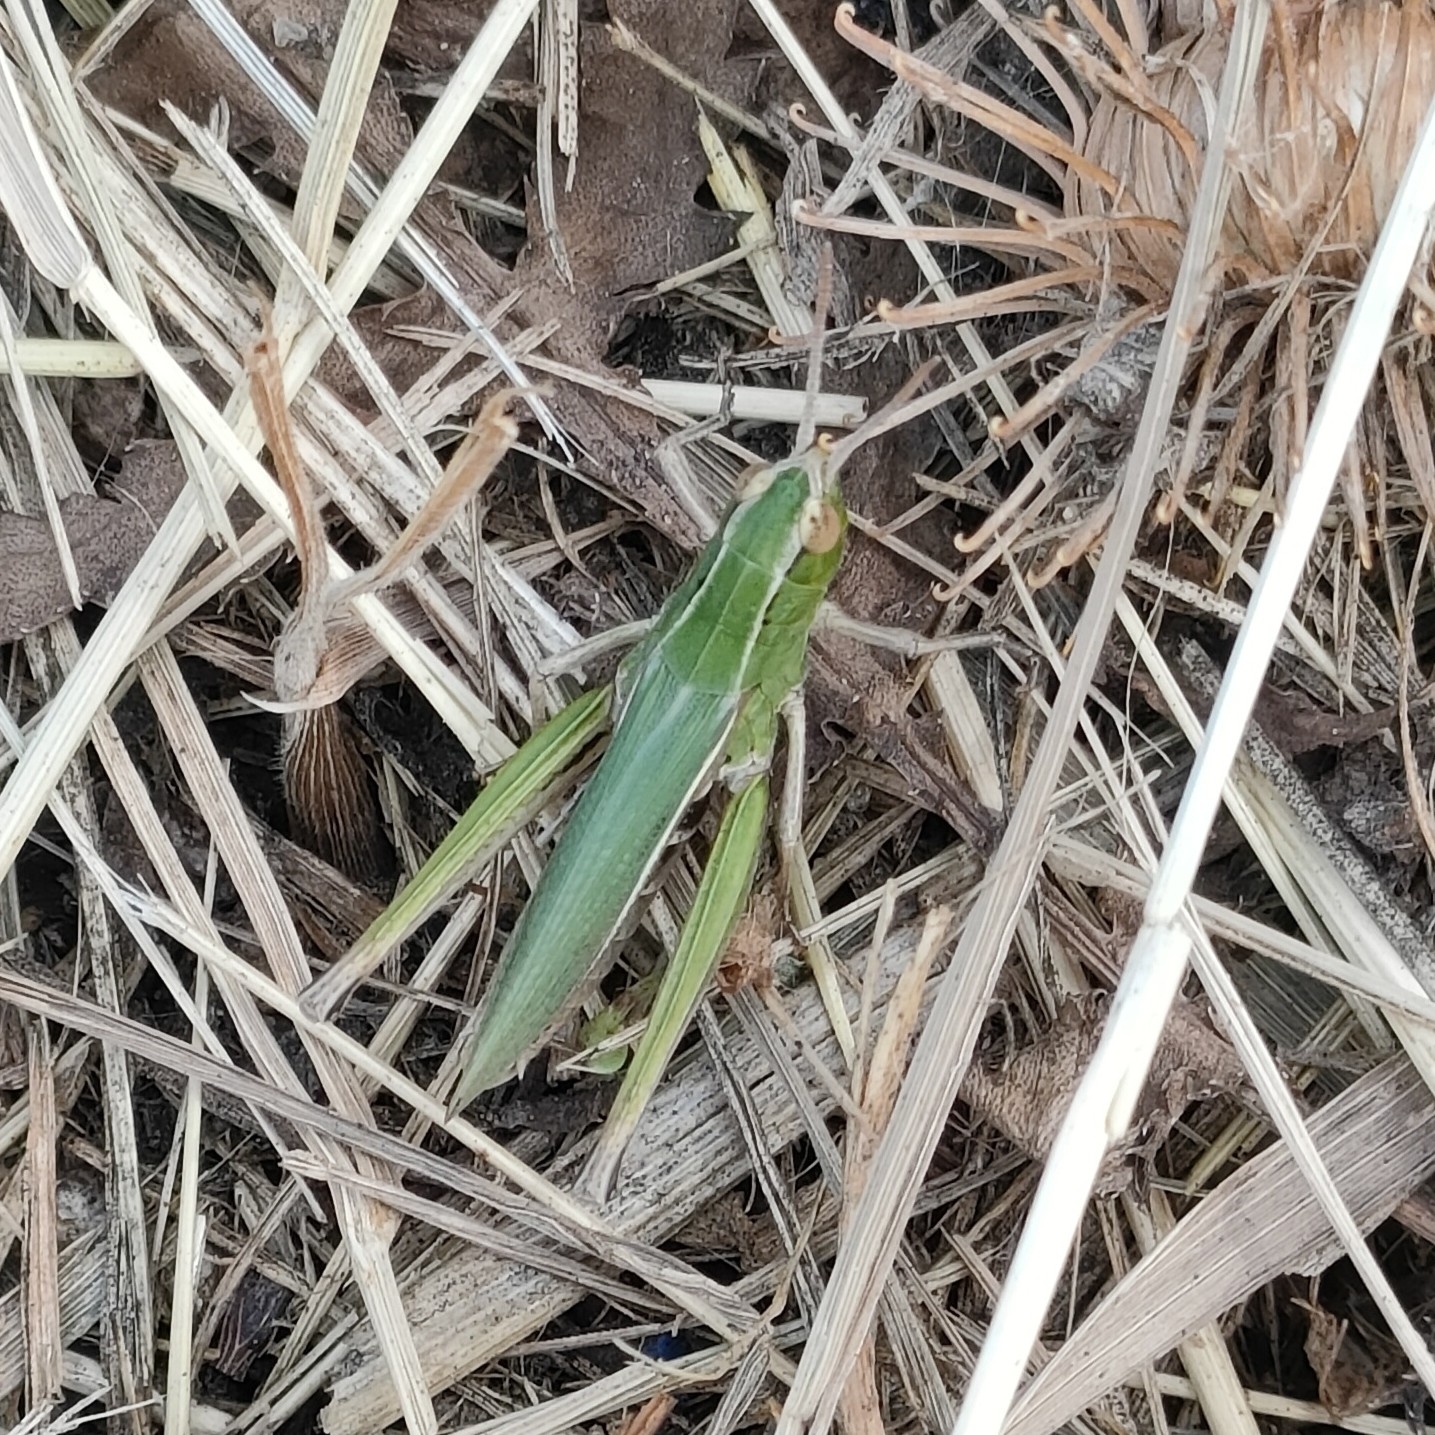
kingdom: Animalia
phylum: Arthropoda
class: Insecta
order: Orthoptera
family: Acrididae
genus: Chorthippus
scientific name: Chorthippus albomarginatus
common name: Lesser marsh grasshopper
